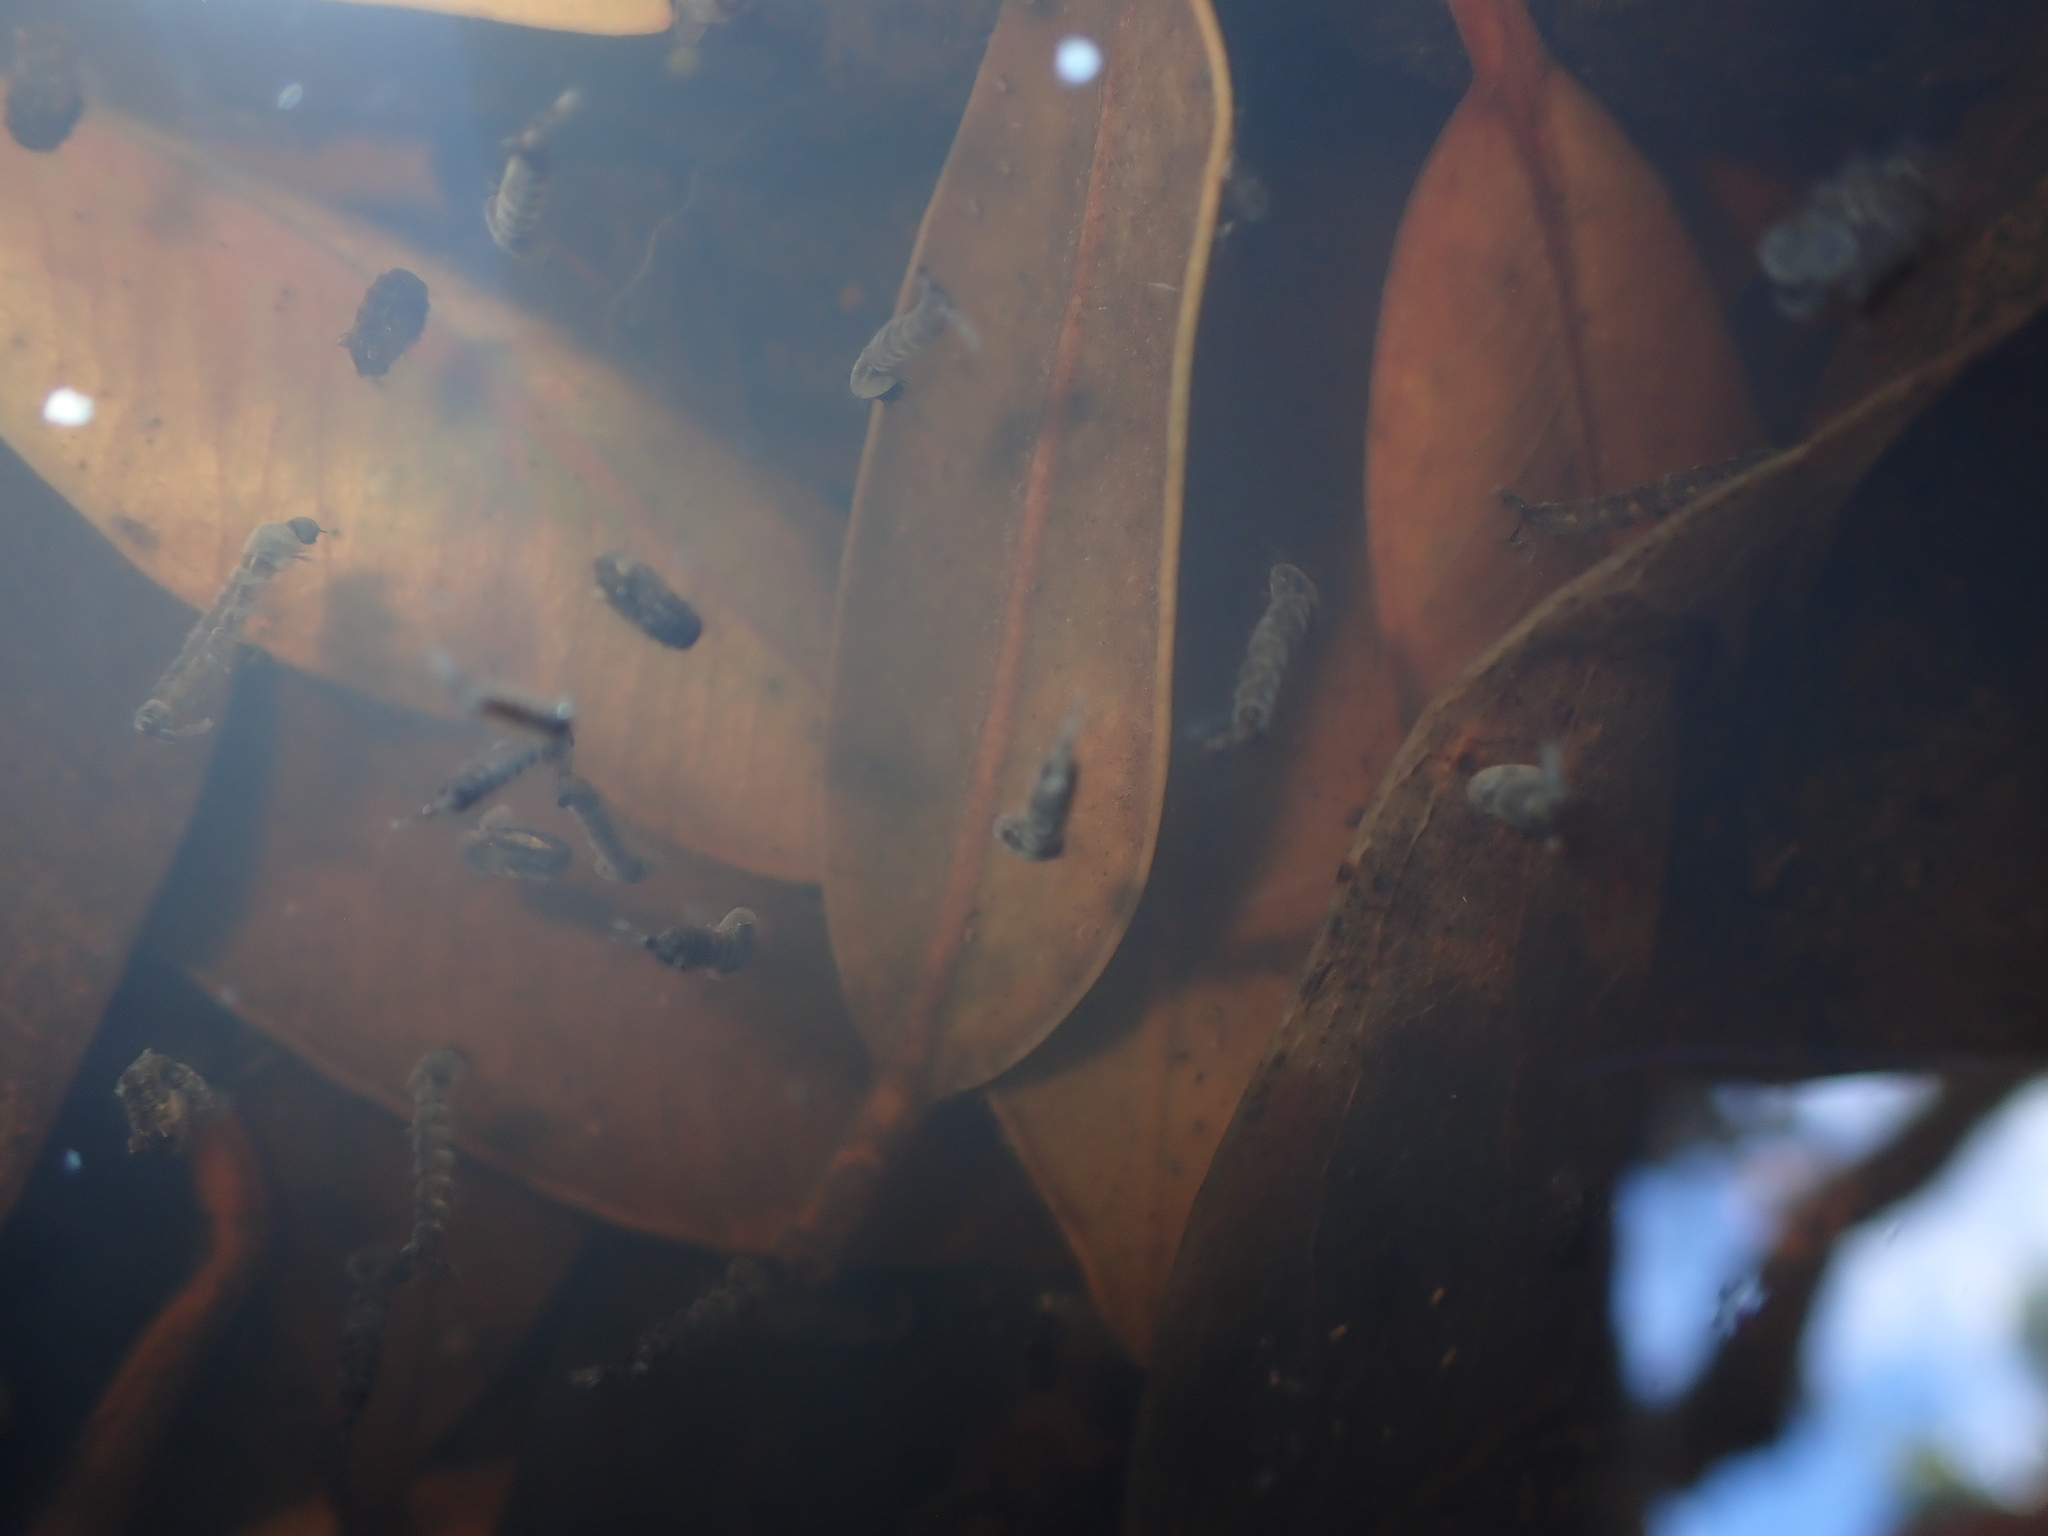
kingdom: Animalia
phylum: Arthropoda
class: Insecta
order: Diptera
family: Culicidae
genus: Opifex
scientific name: Opifex fuscus
